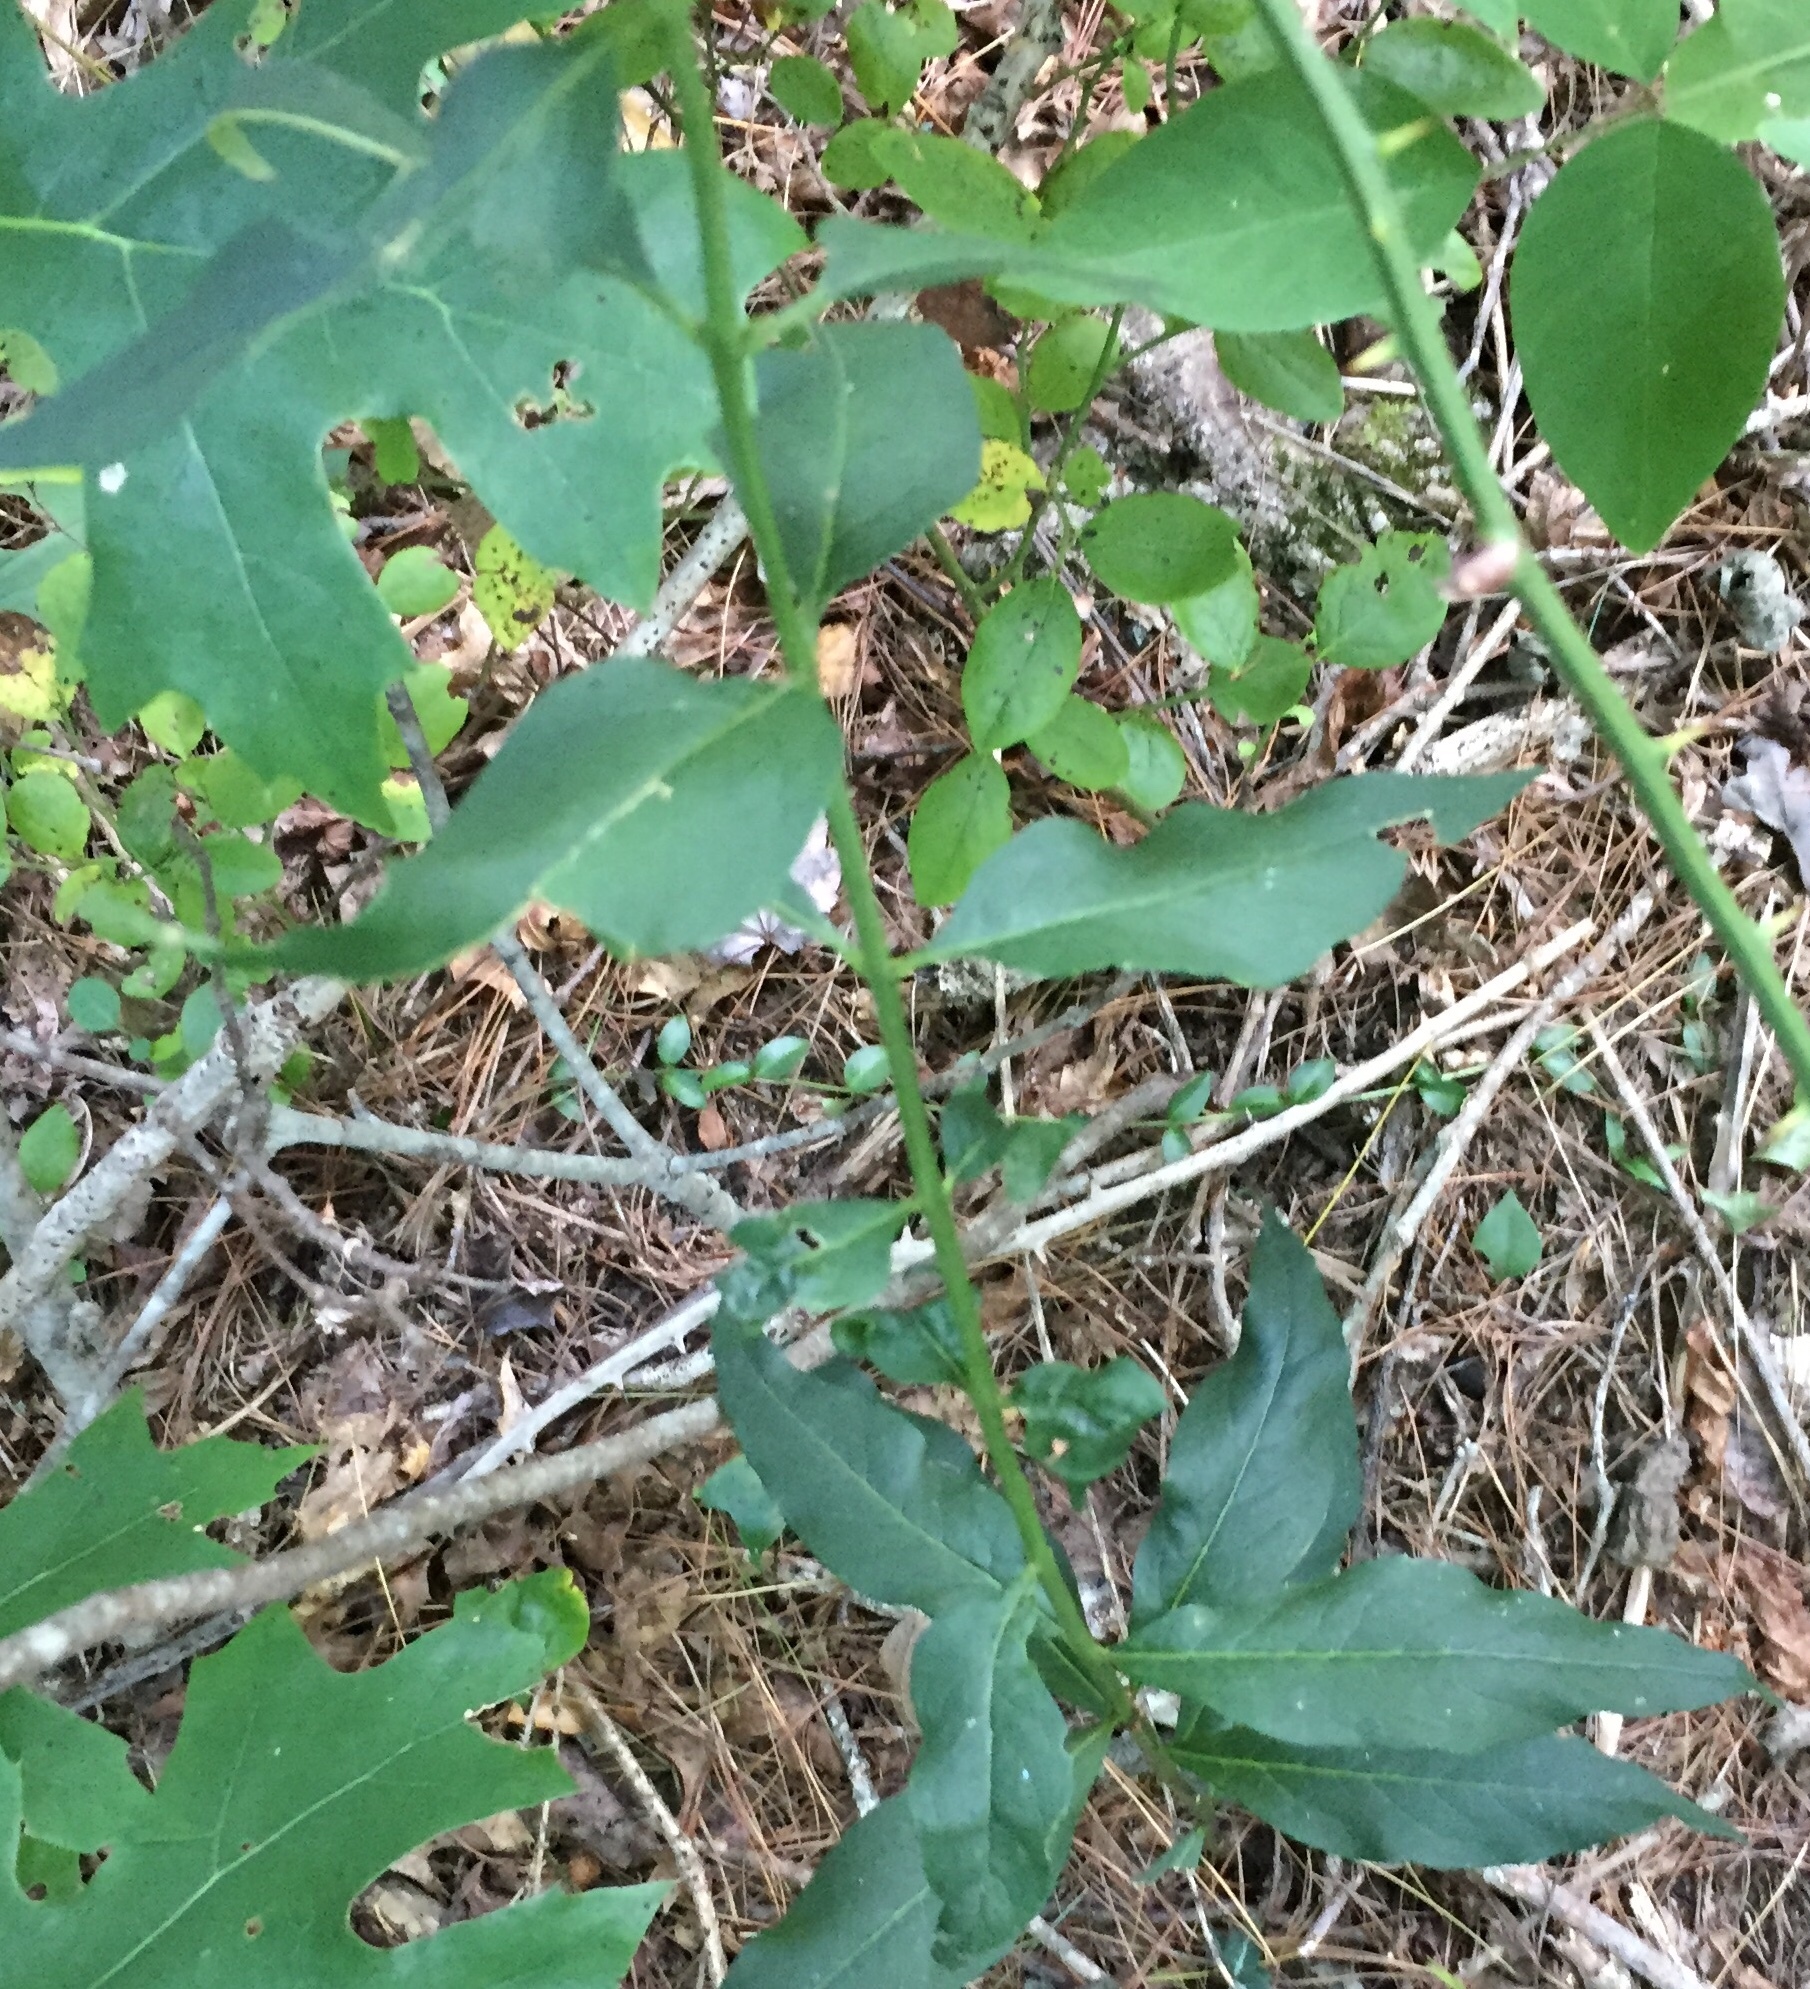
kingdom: Plantae
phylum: Tracheophyta
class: Magnoliopsida
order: Lamiales
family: Orobanchaceae
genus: Aureolaria
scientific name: Aureolaria levigata
